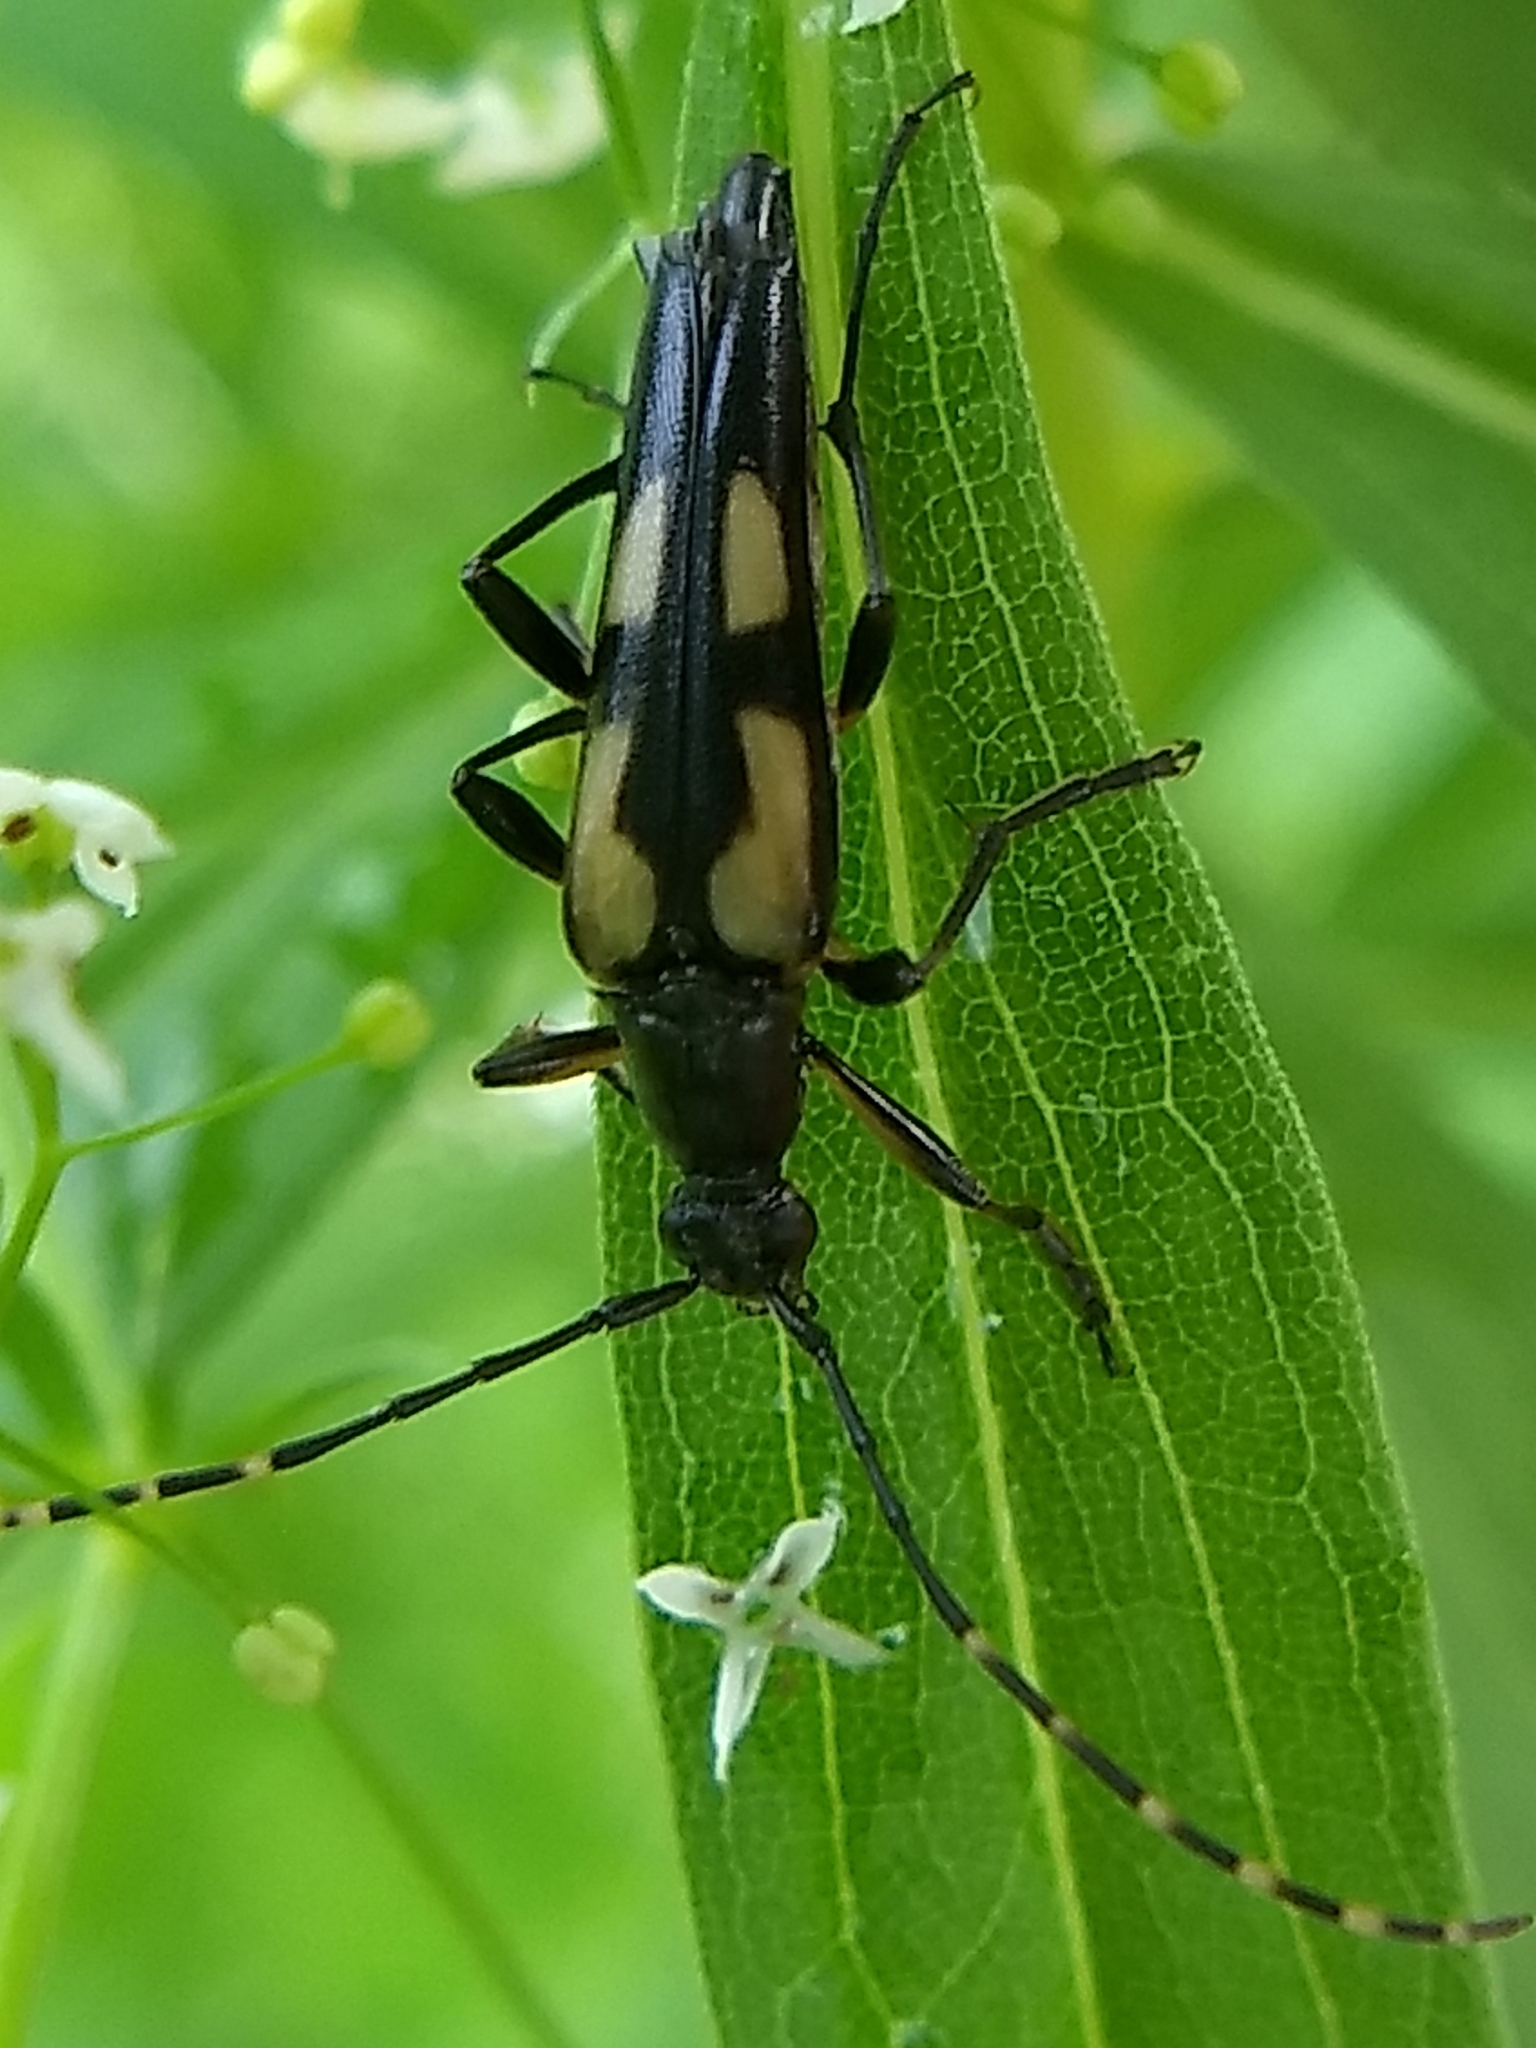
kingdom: Animalia
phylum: Arthropoda
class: Insecta
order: Coleoptera
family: Cerambycidae
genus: Etorofus
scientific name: Etorofus
